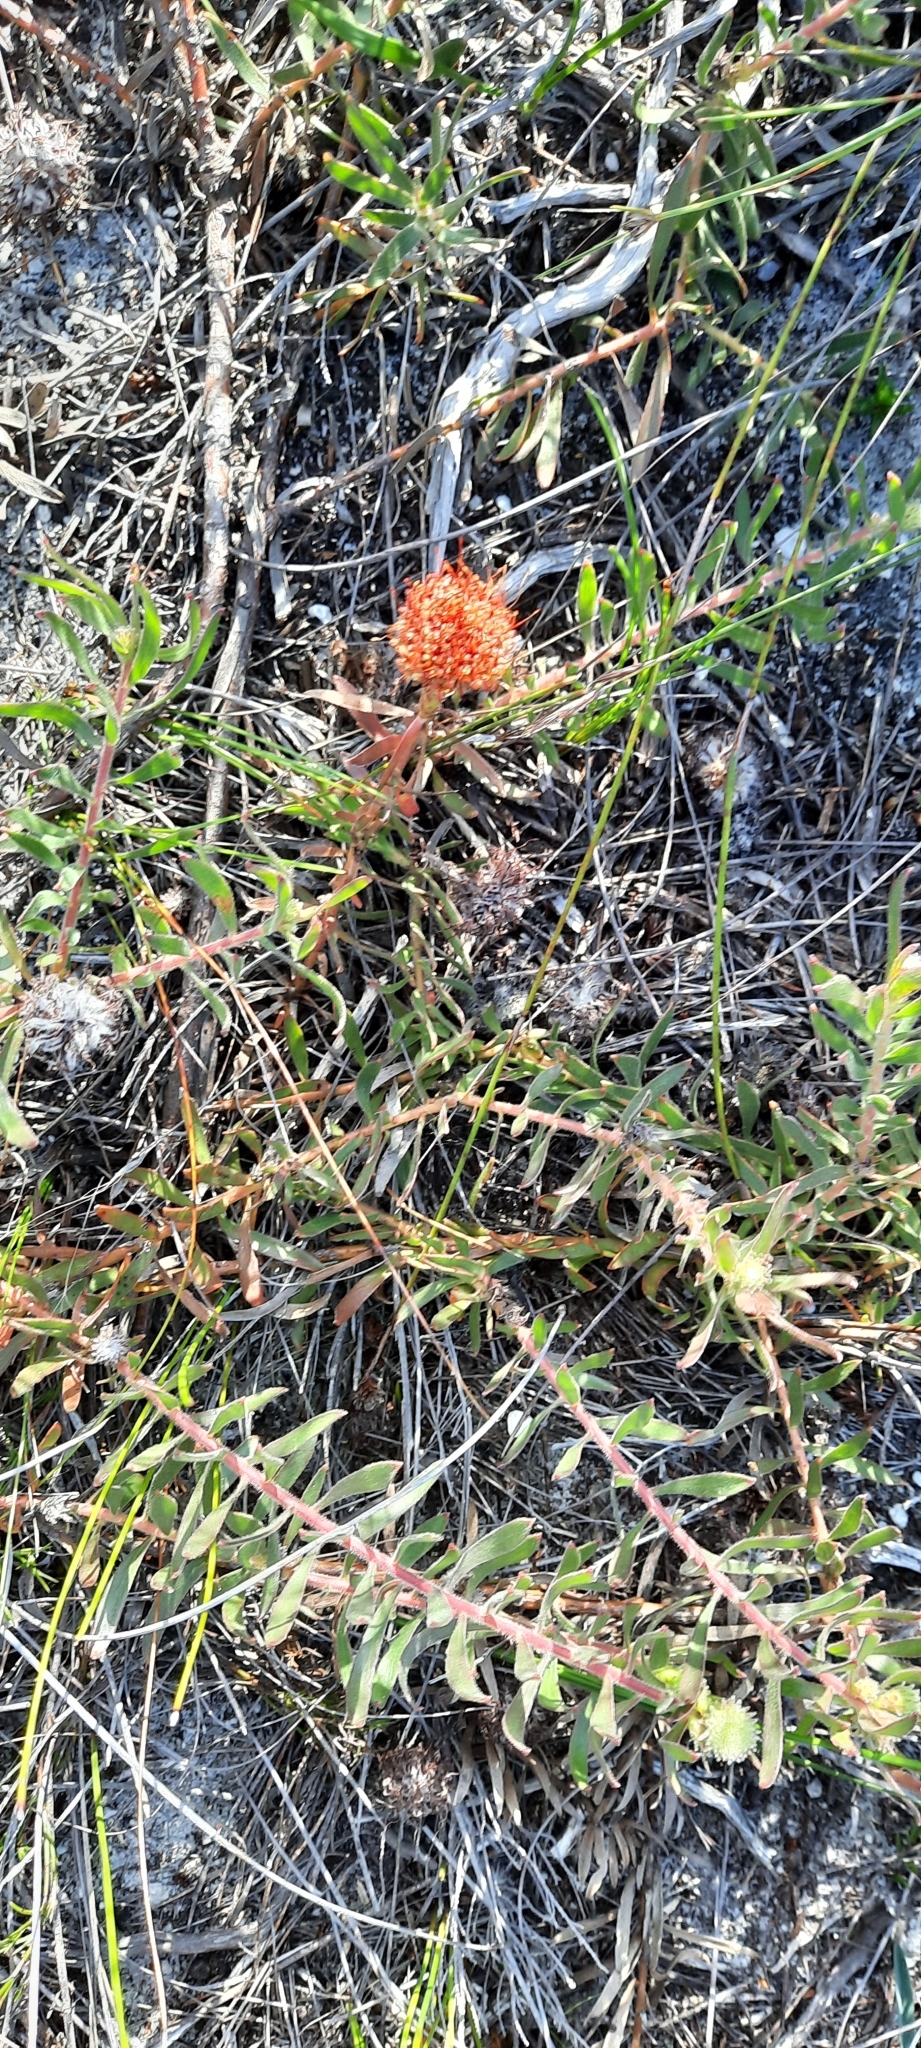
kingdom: Plantae
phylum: Tracheophyta
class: Magnoliopsida
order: Proteales
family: Proteaceae
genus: Leucospermum
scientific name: Leucospermum prostratum
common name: Yellow-trailing pincushion
